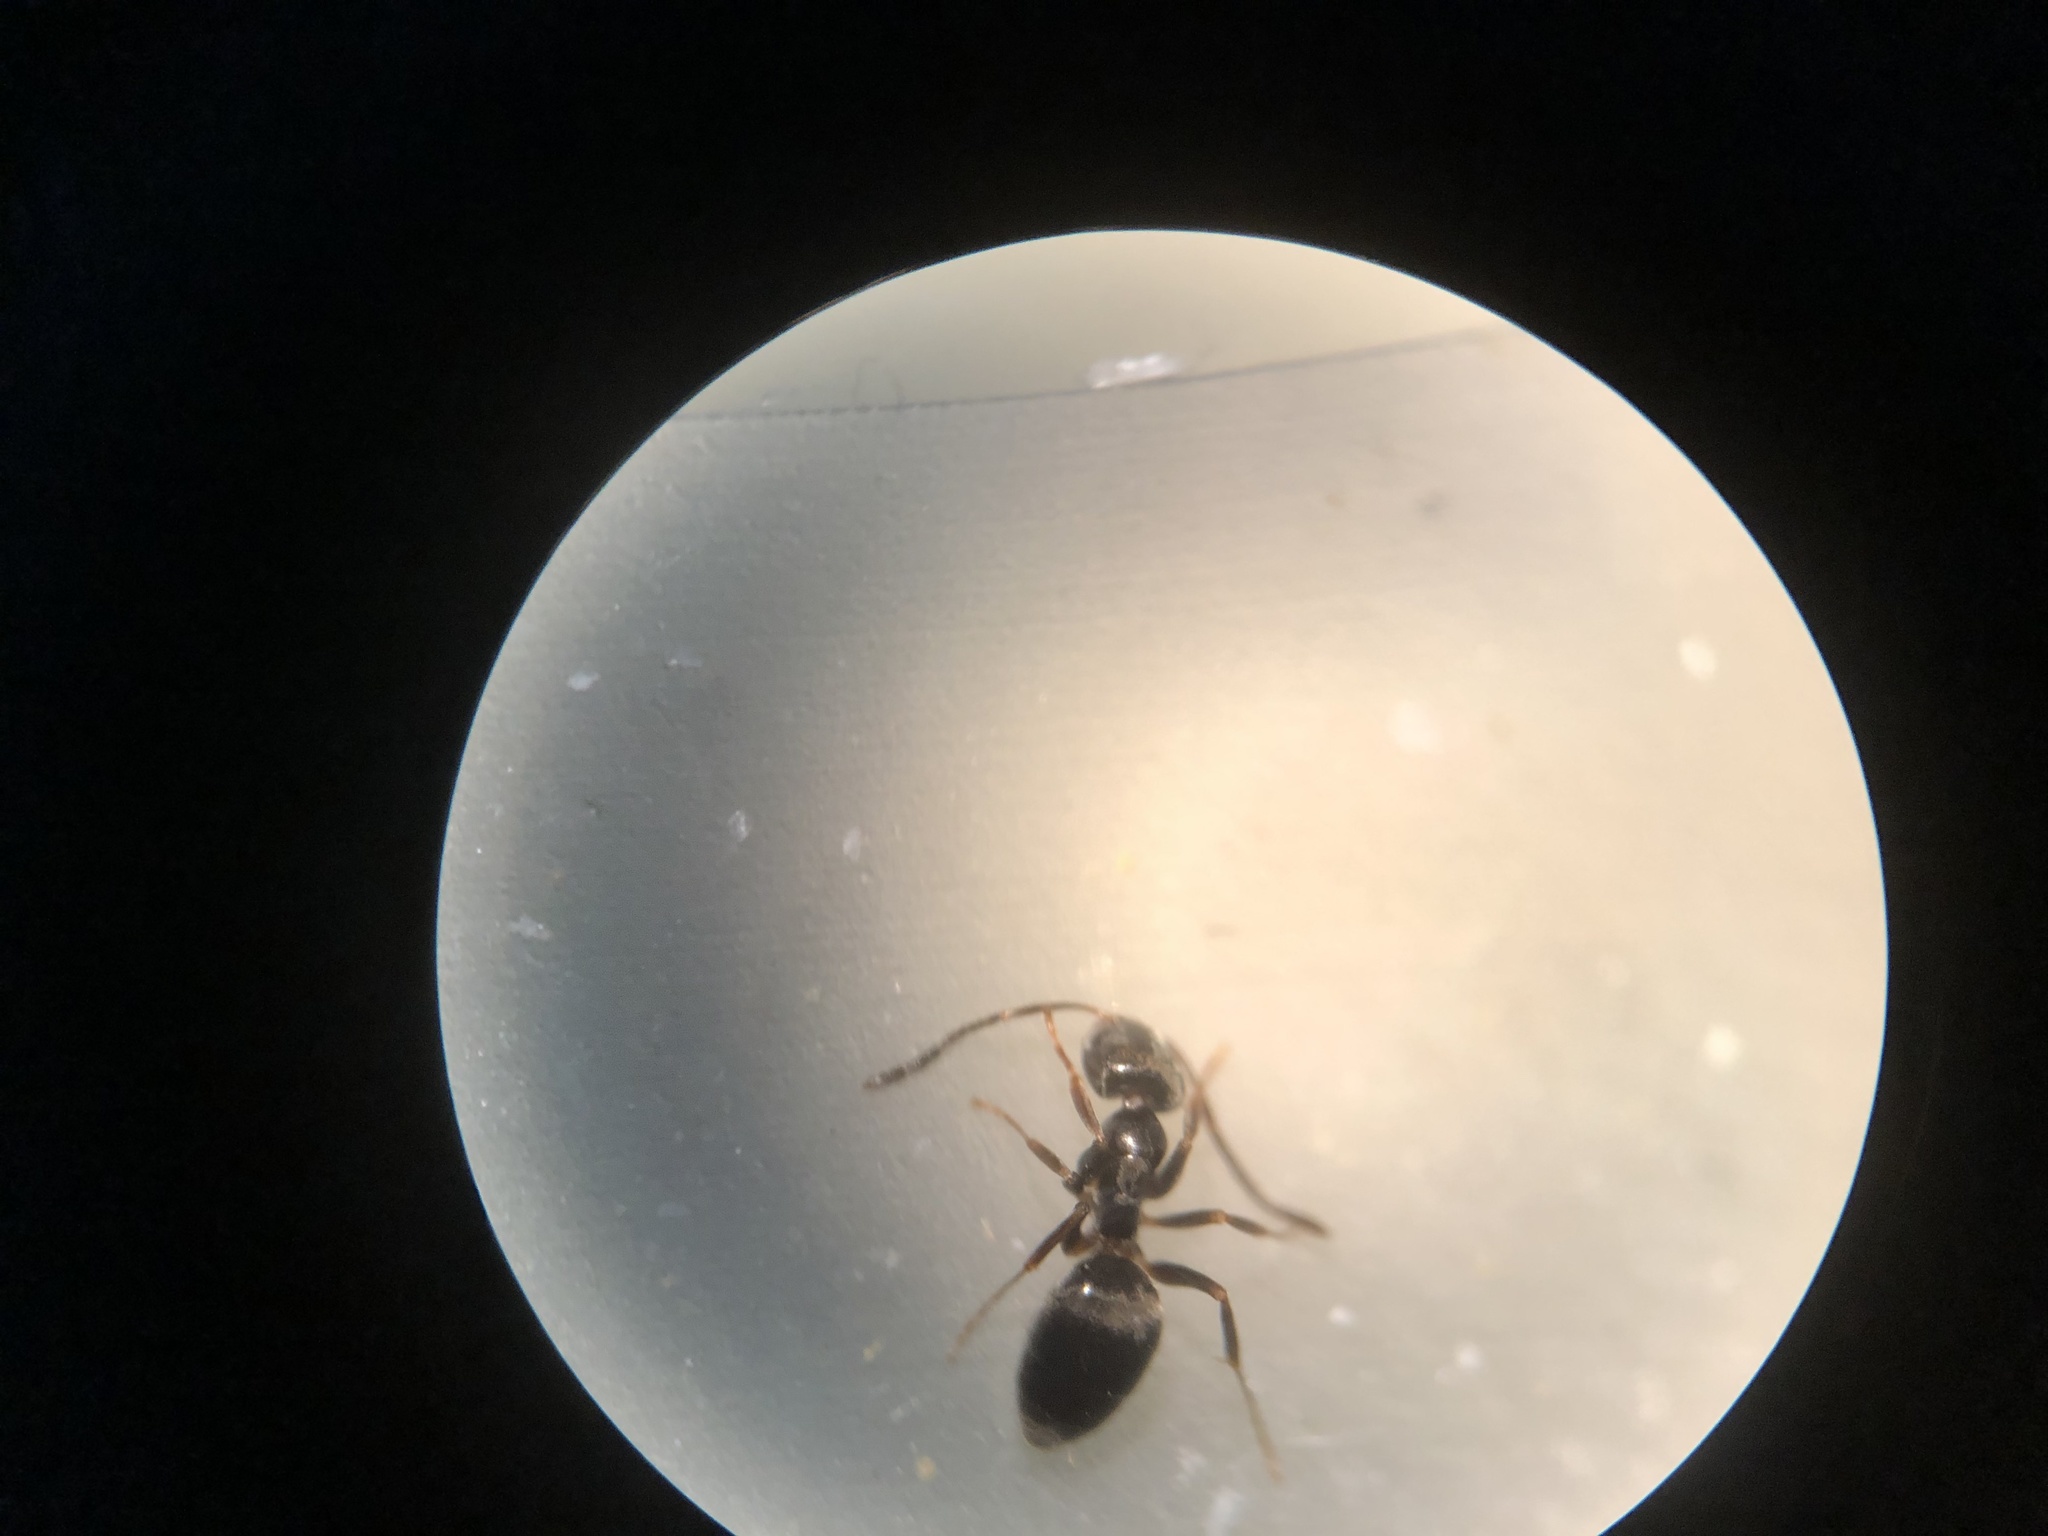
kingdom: Animalia
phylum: Arthropoda
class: Insecta
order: Hymenoptera
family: Formicidae
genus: Tapinoma
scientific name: Tapinoma sessile
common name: Odorous house ant
